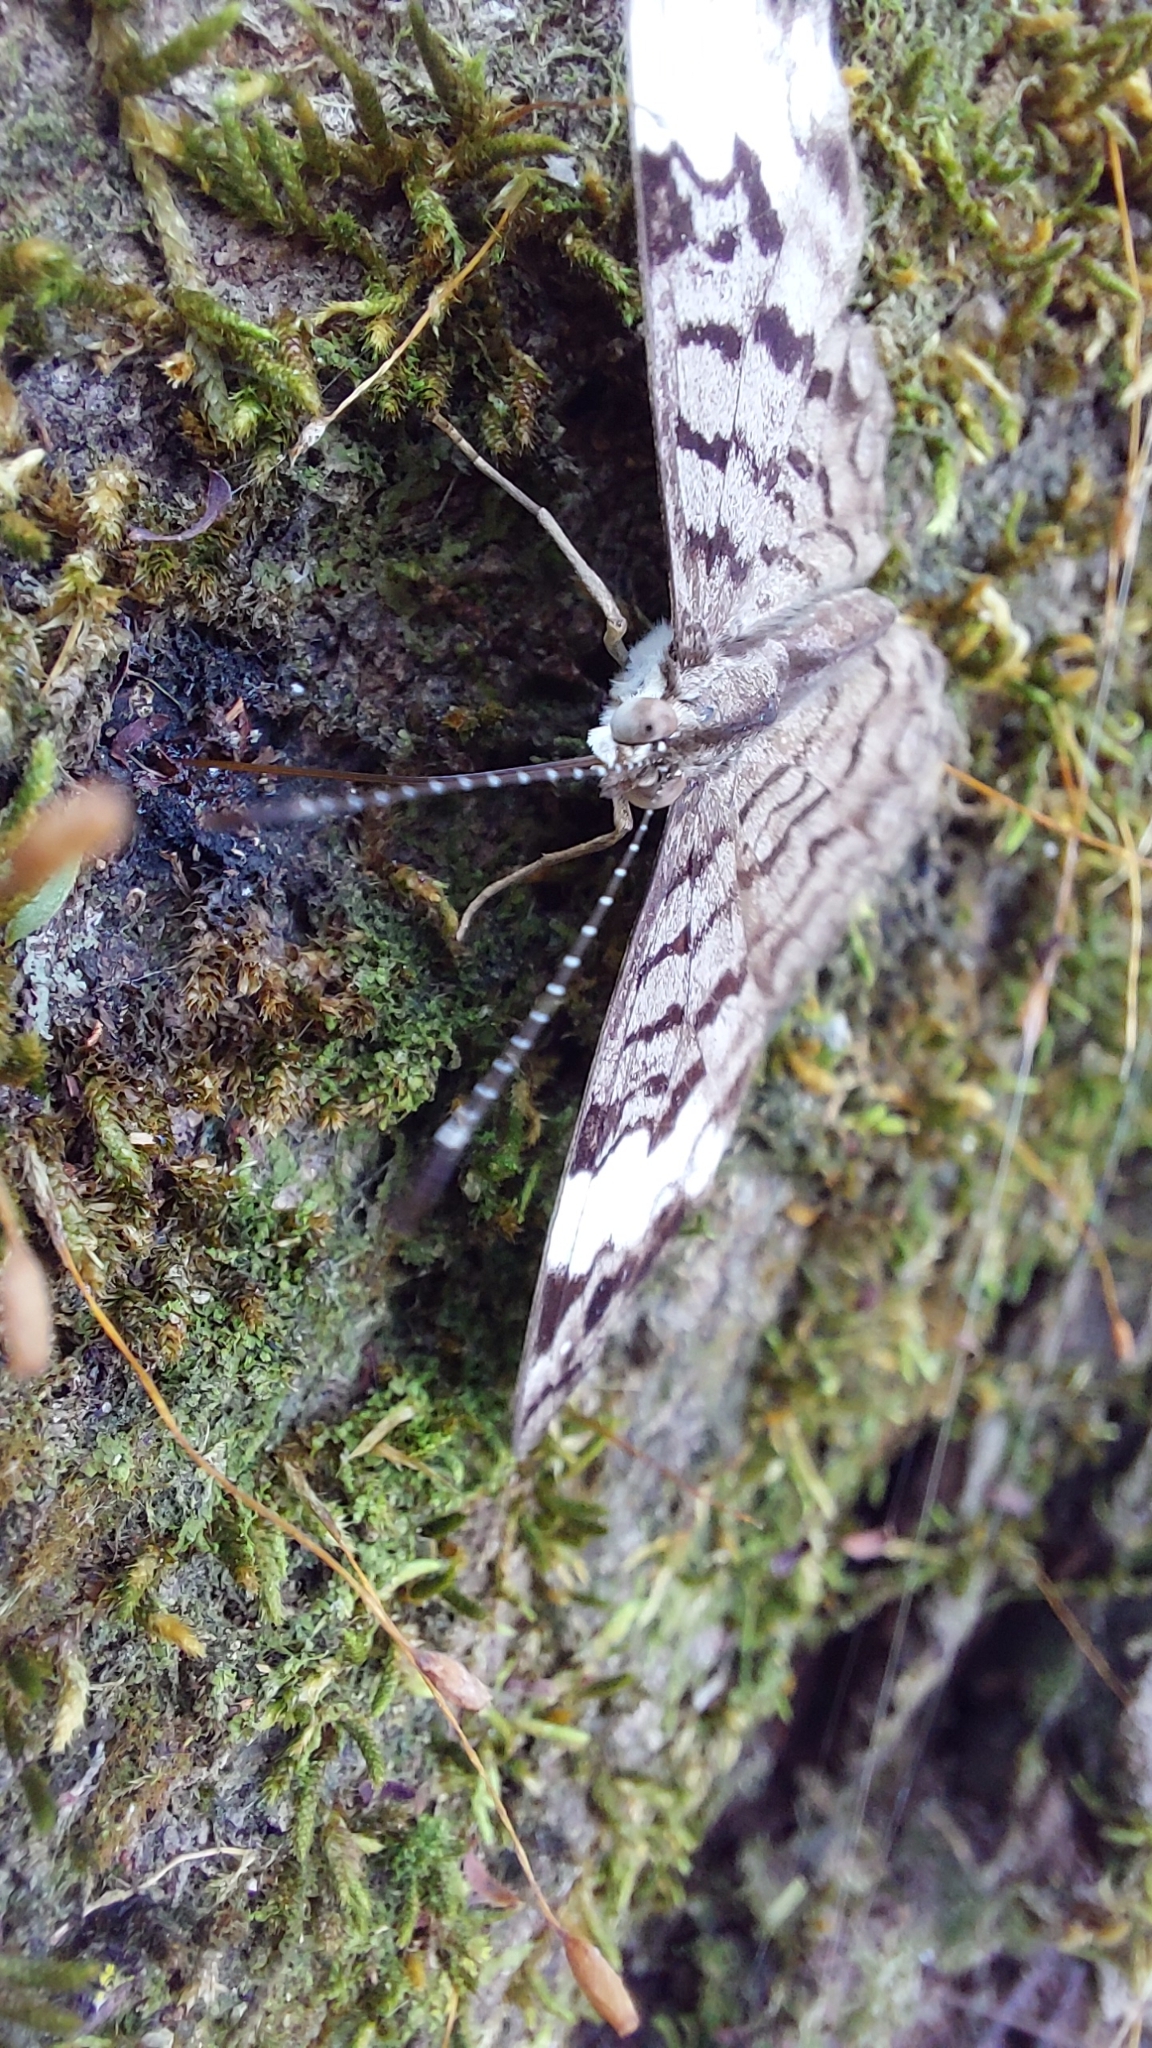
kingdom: Animalia
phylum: Arthropoda
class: Insecta
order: Lepidoptera
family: Nymphalidae
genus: Ectima
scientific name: Ectima thecla
